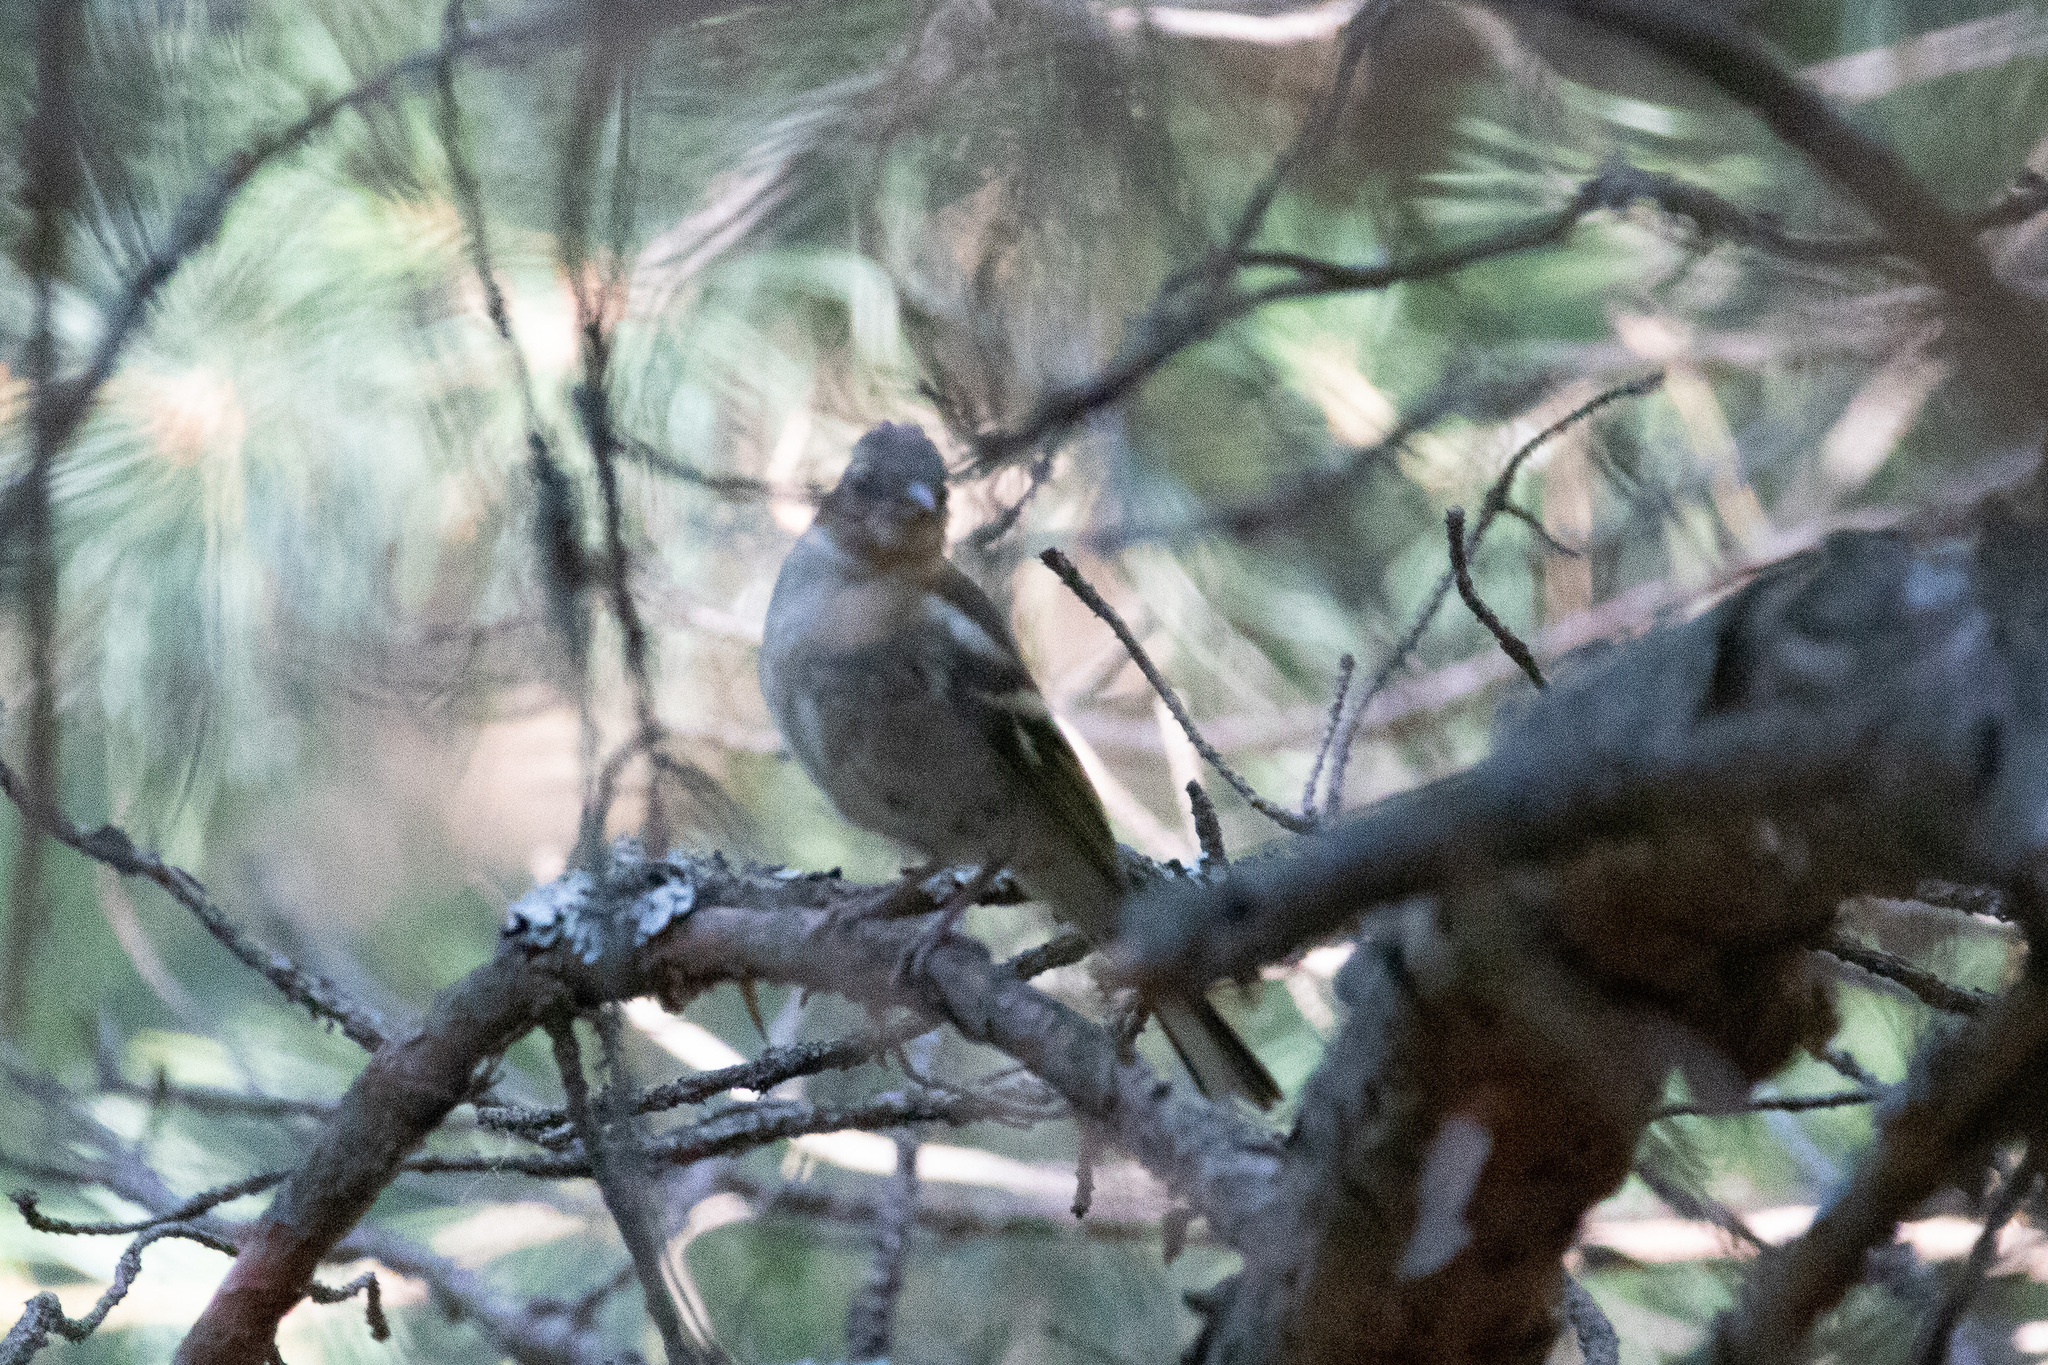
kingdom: Animalia
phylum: Chordata
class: Aves
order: Passeriformes
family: Fringillidae
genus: Fringilla
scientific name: Fringilla coelebs
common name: Common chaffinch
